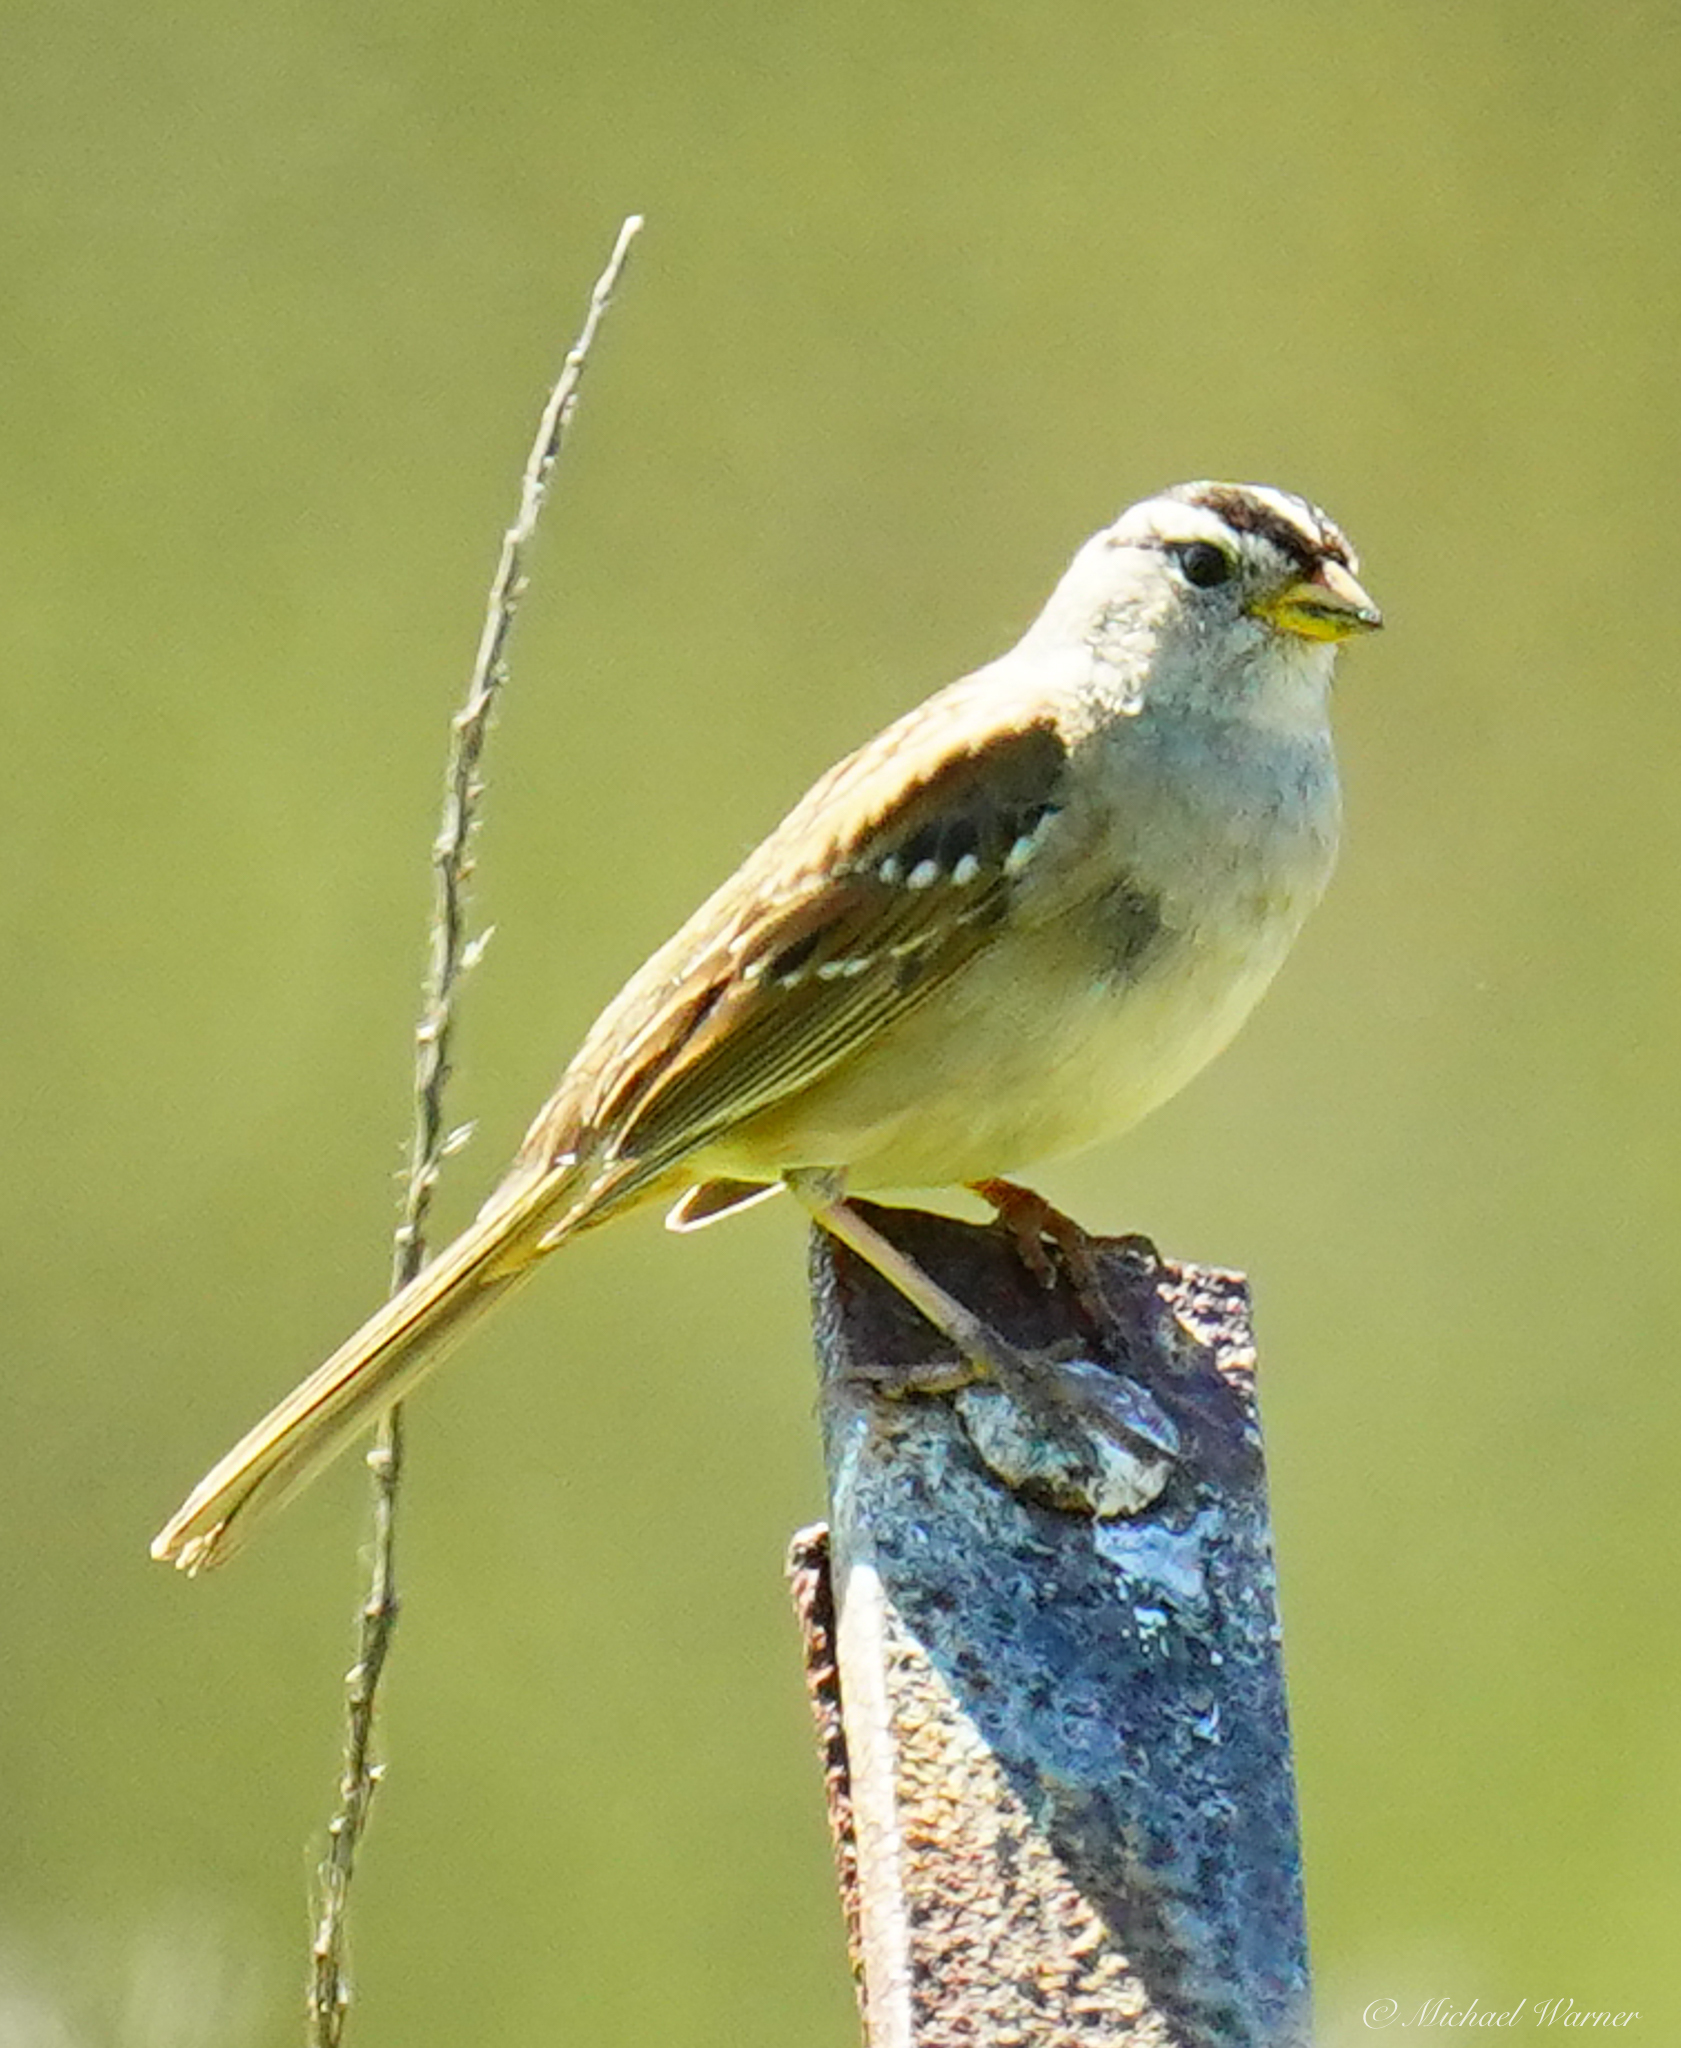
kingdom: Animalia
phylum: Chordata
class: Aves
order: Passeriformes
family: Passerellidae
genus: Zonotrichia
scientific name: Zonotrichia leucophrys
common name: White-crowned sparrow
